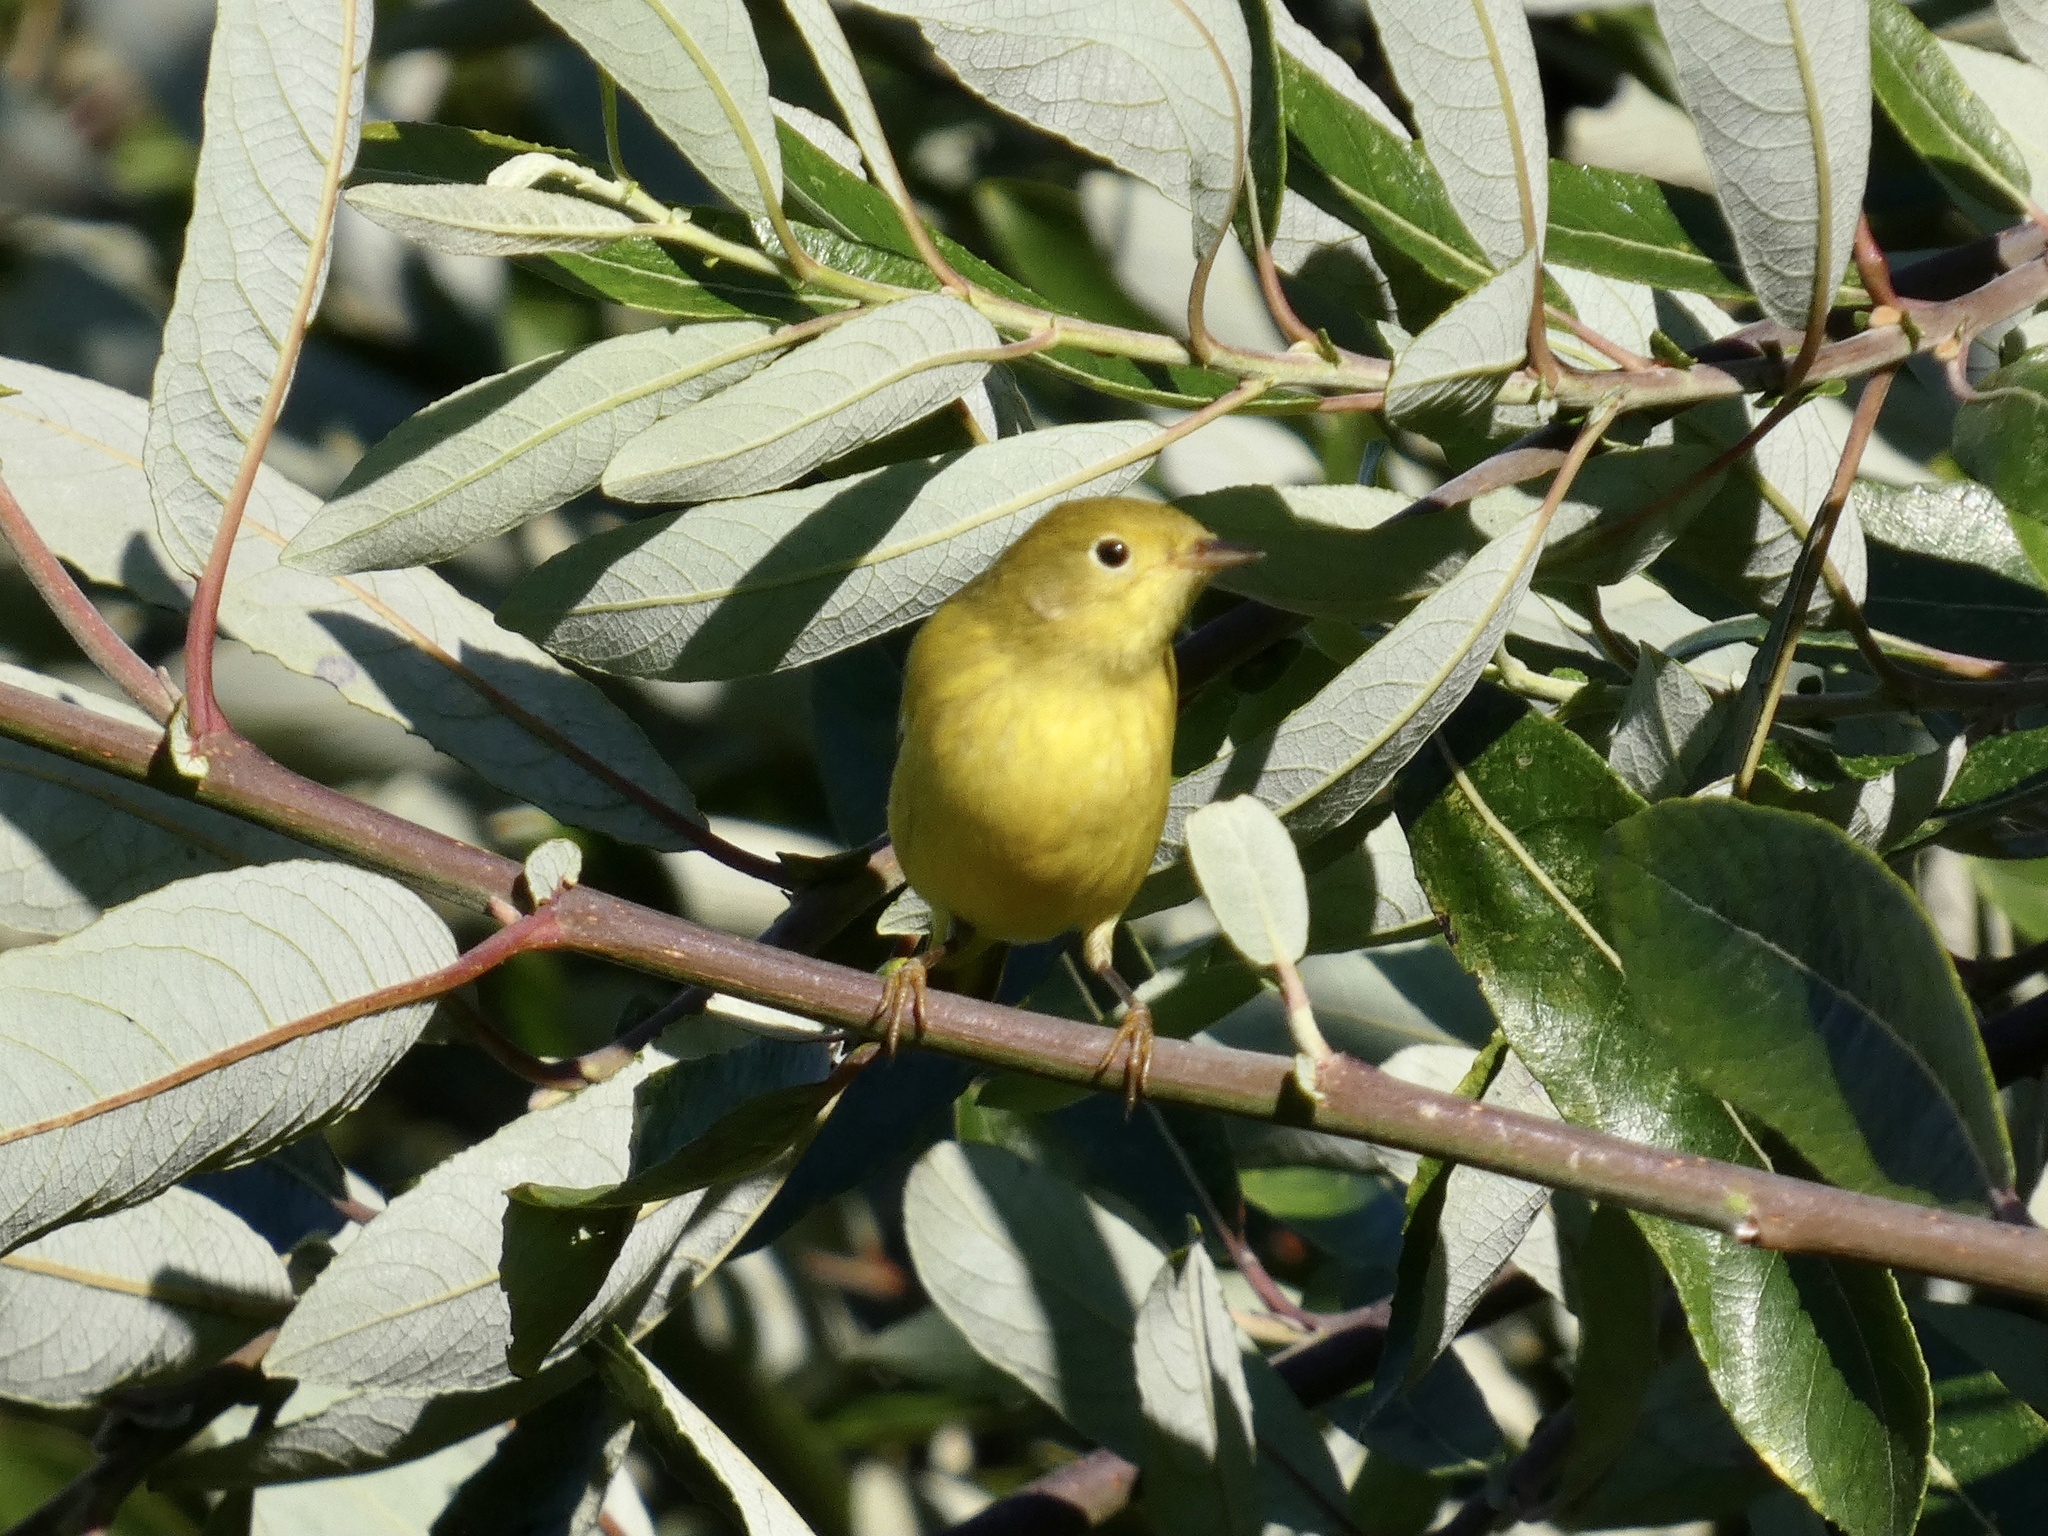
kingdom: Animalia
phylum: Chordata
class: Aves
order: Passeriformes
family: Parulidae
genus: Setophaga
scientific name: Setophaga petechia
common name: Yellow warbler
